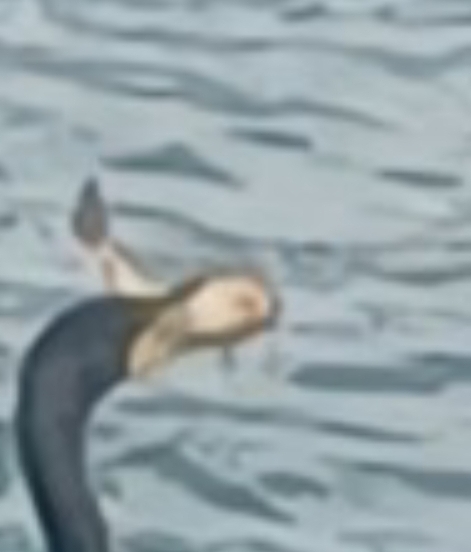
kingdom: Animalia
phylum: Chordata
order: Siluriformes
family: Ictaluridae
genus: Ameiurus
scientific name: Ameiurus
